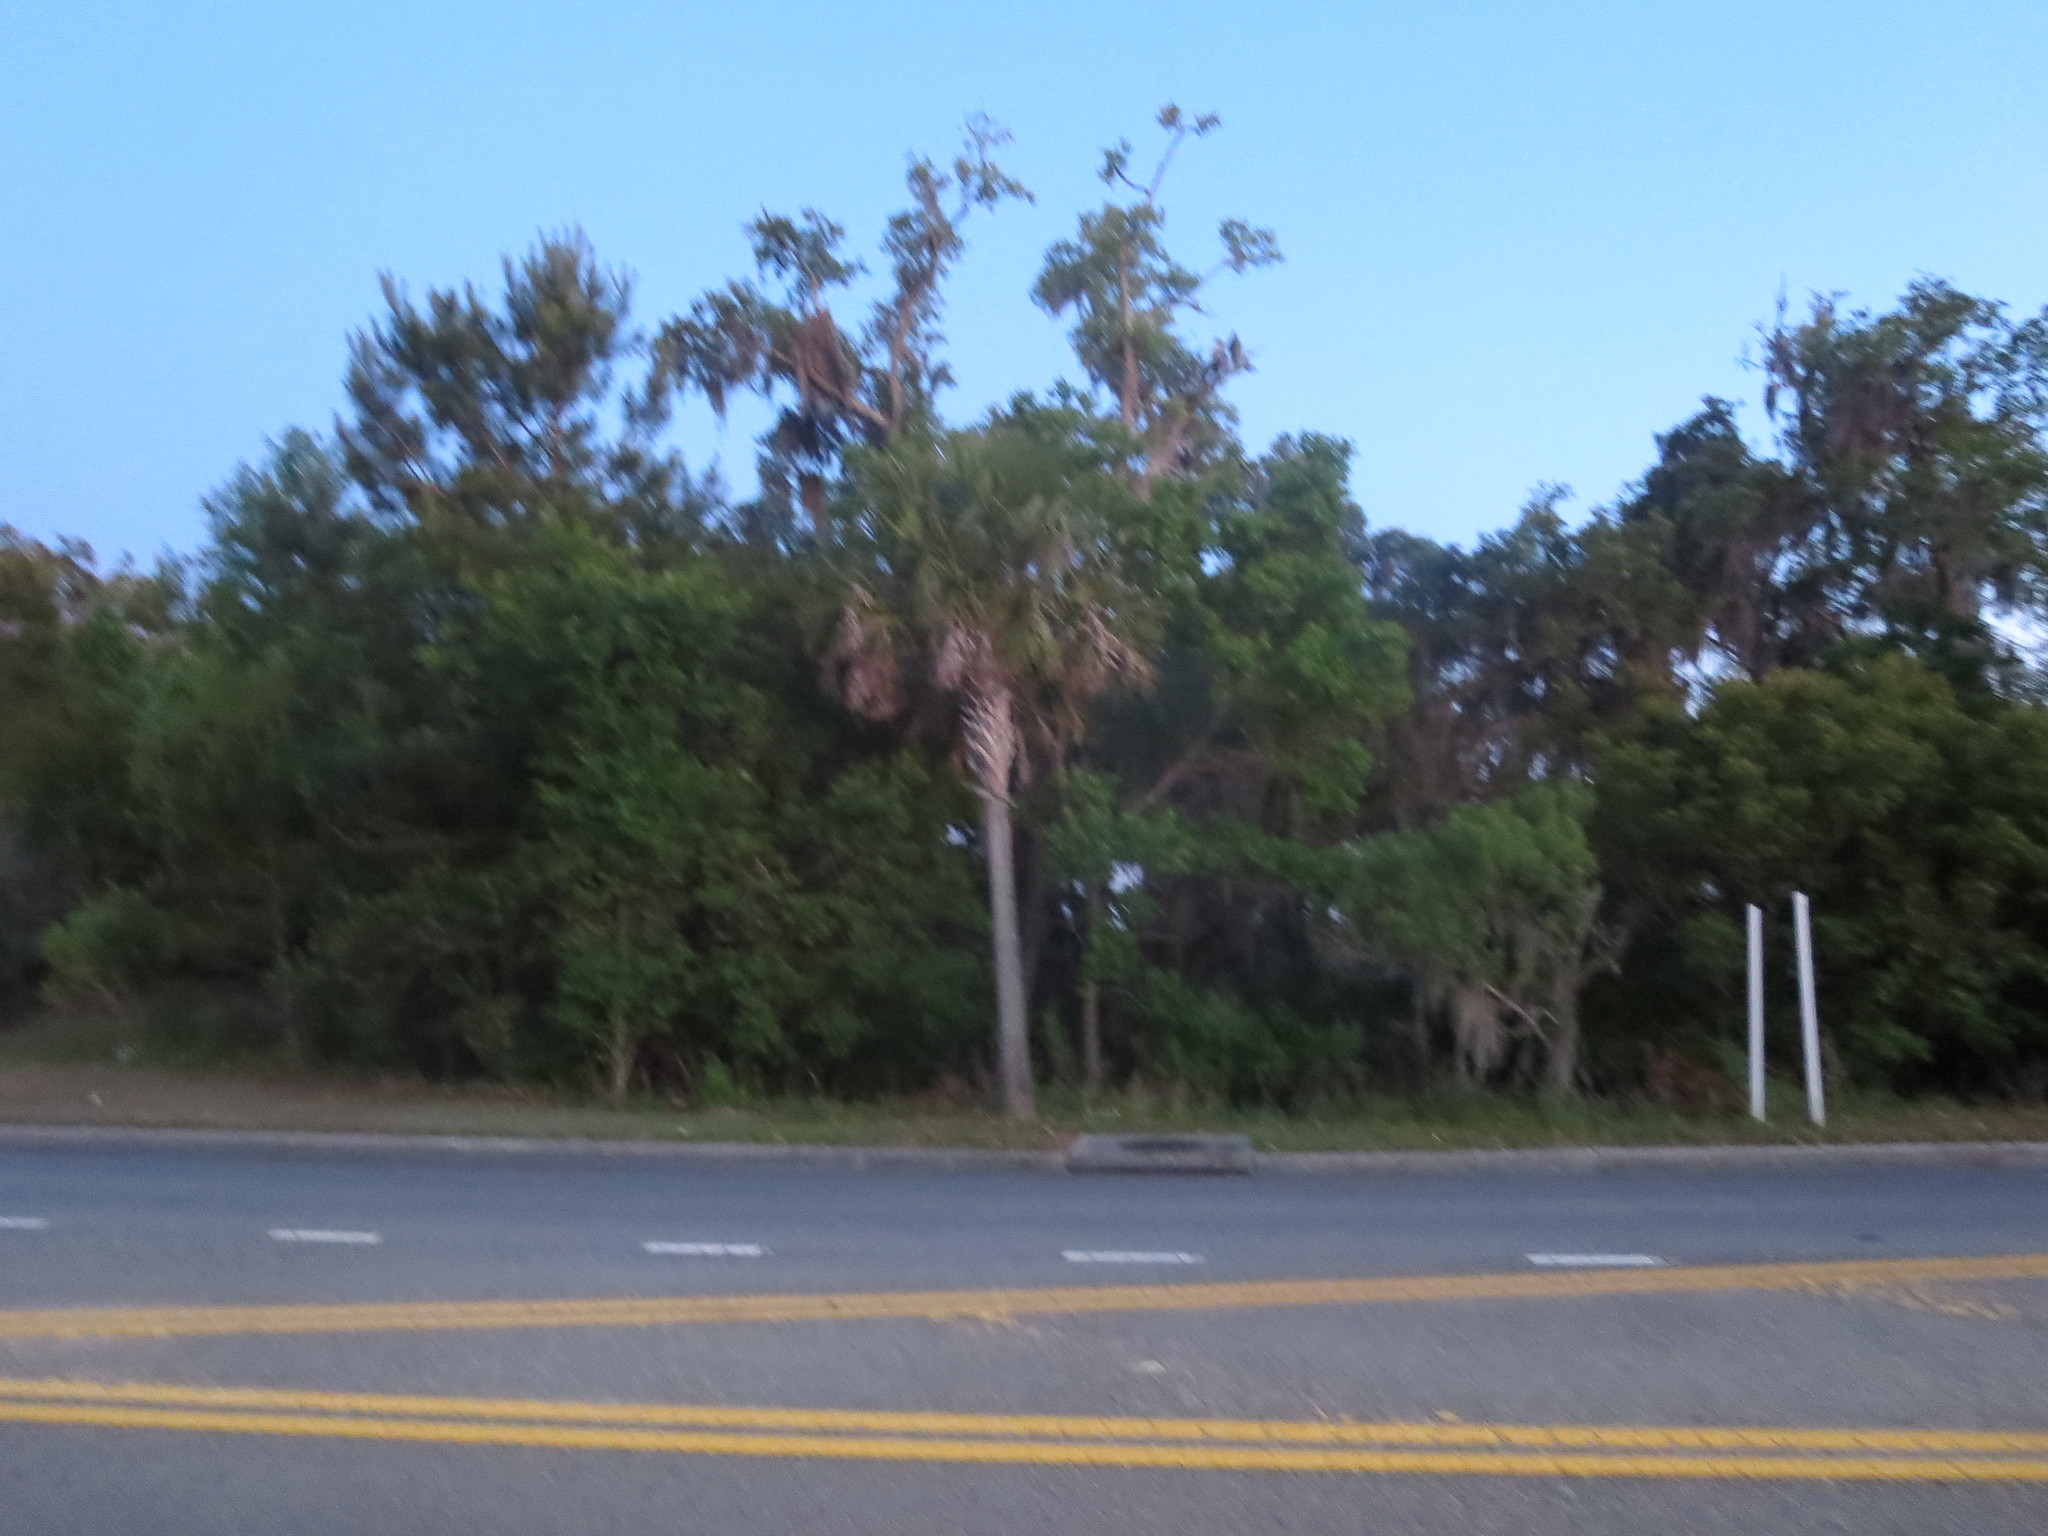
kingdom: Plantae
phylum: Tracheophyta
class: Liliopsida
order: Arecales
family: Arecaceae
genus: Sabal
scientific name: Sabal palmetto
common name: Blue palmetto
